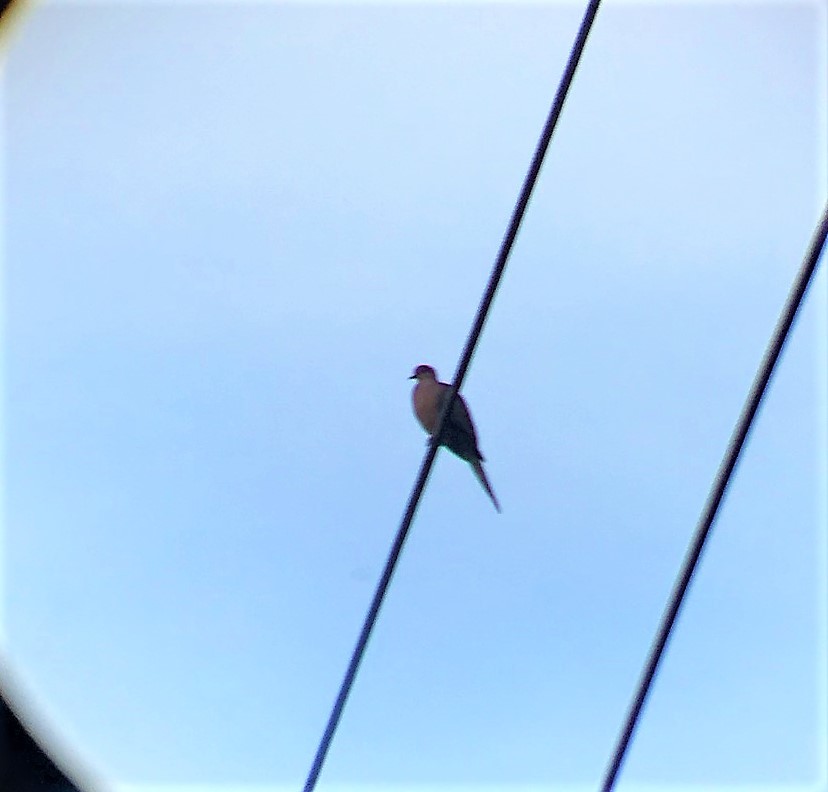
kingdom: Animalia
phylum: Chordata
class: Aves
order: Columbiformes
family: Columbidae
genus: Zenaida
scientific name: Zenaida macroura
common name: Mourning dove
